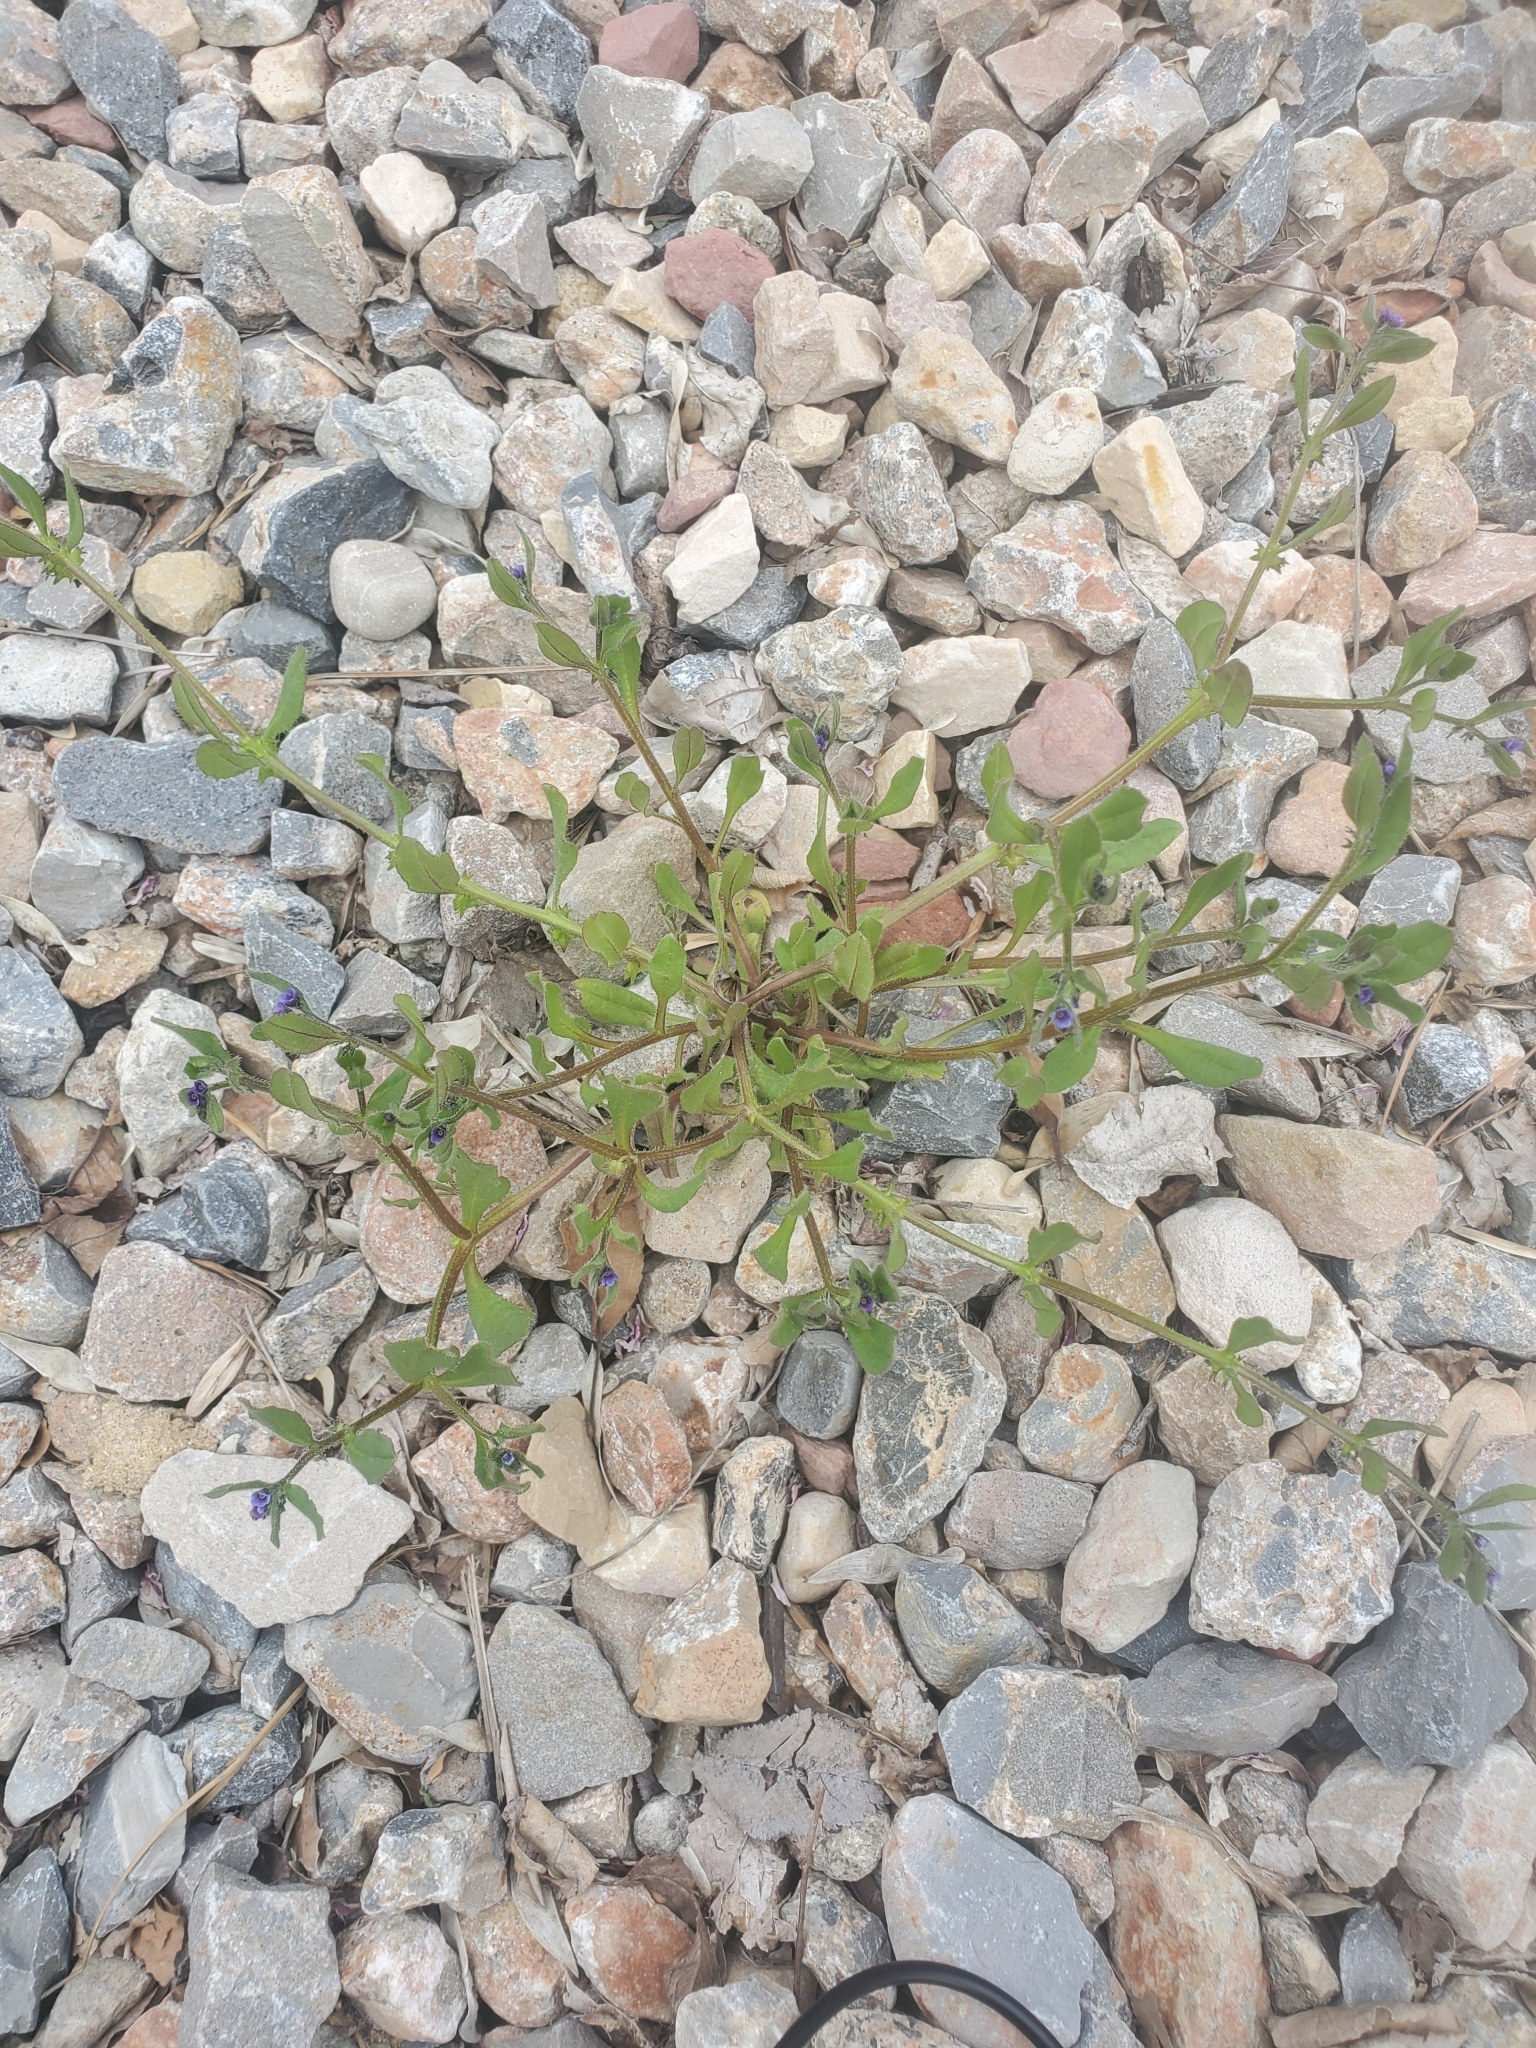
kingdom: Plantae
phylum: Tracheophyta
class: Magnoliopsida
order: Boraginales
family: Boraginaceae
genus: Asperugo
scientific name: Asperugo procumbens
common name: Madwort
